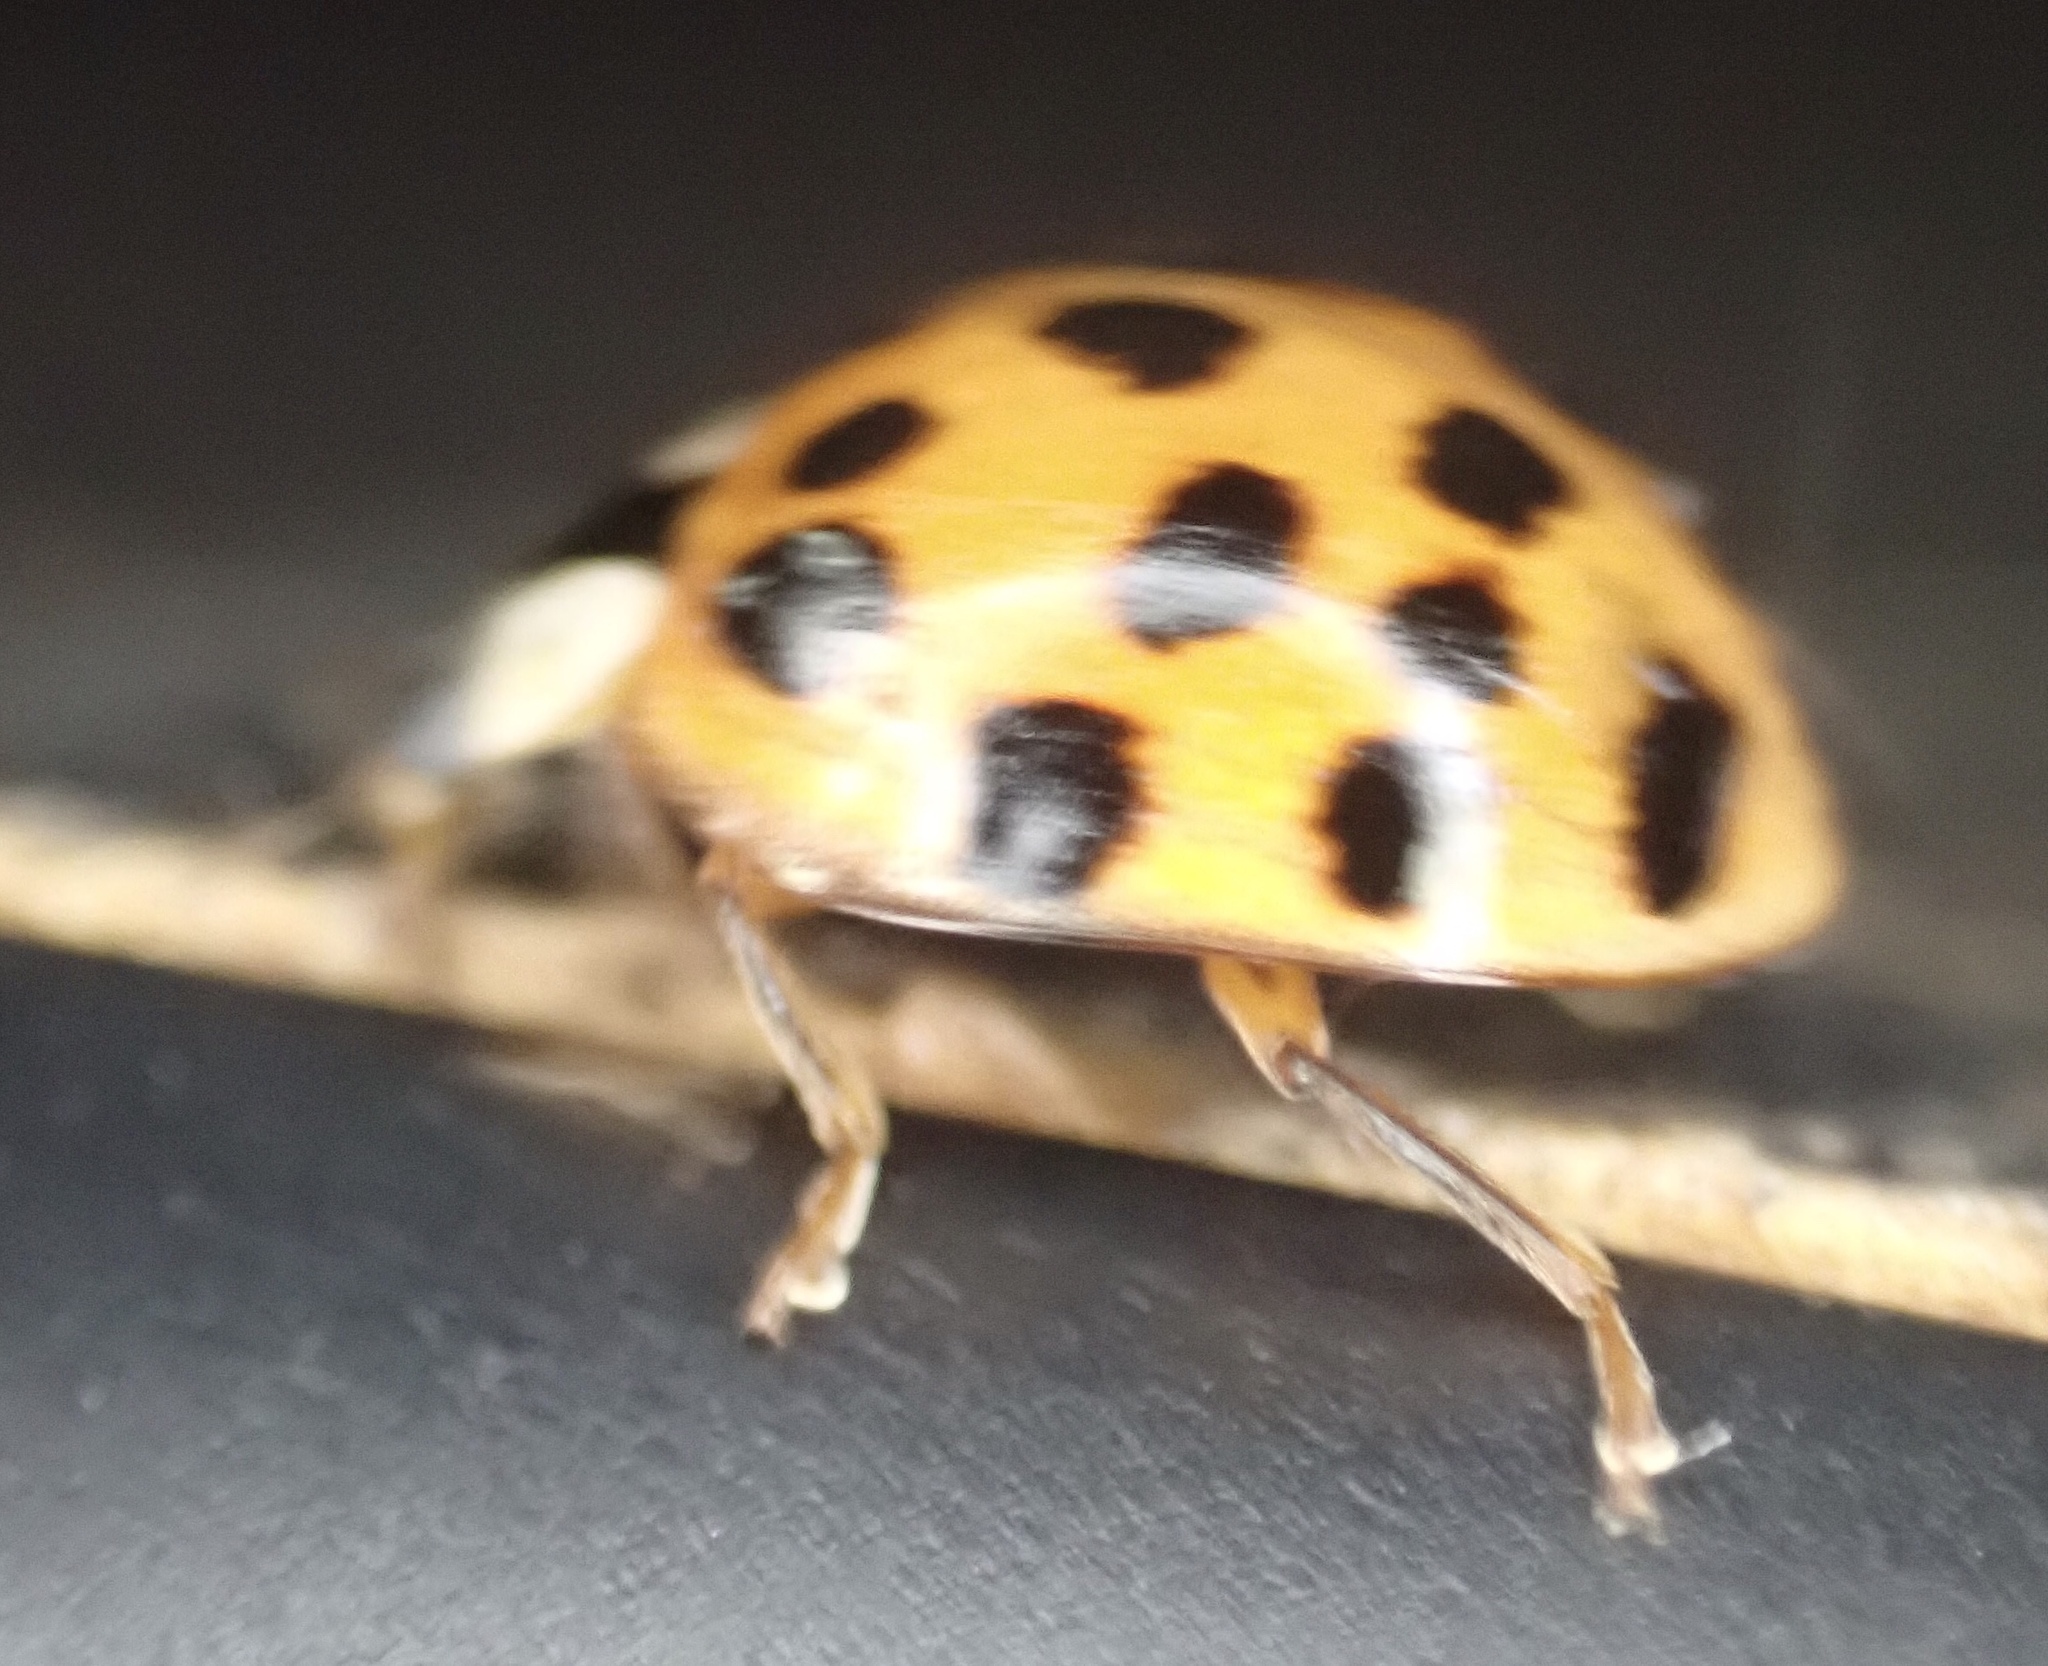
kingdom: Animalia
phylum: Arthropoda
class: Insecta
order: Coleoptera
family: Coccinellidae
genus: Harmonia
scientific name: Harmonia axyridis
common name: Harlequin ladybird
